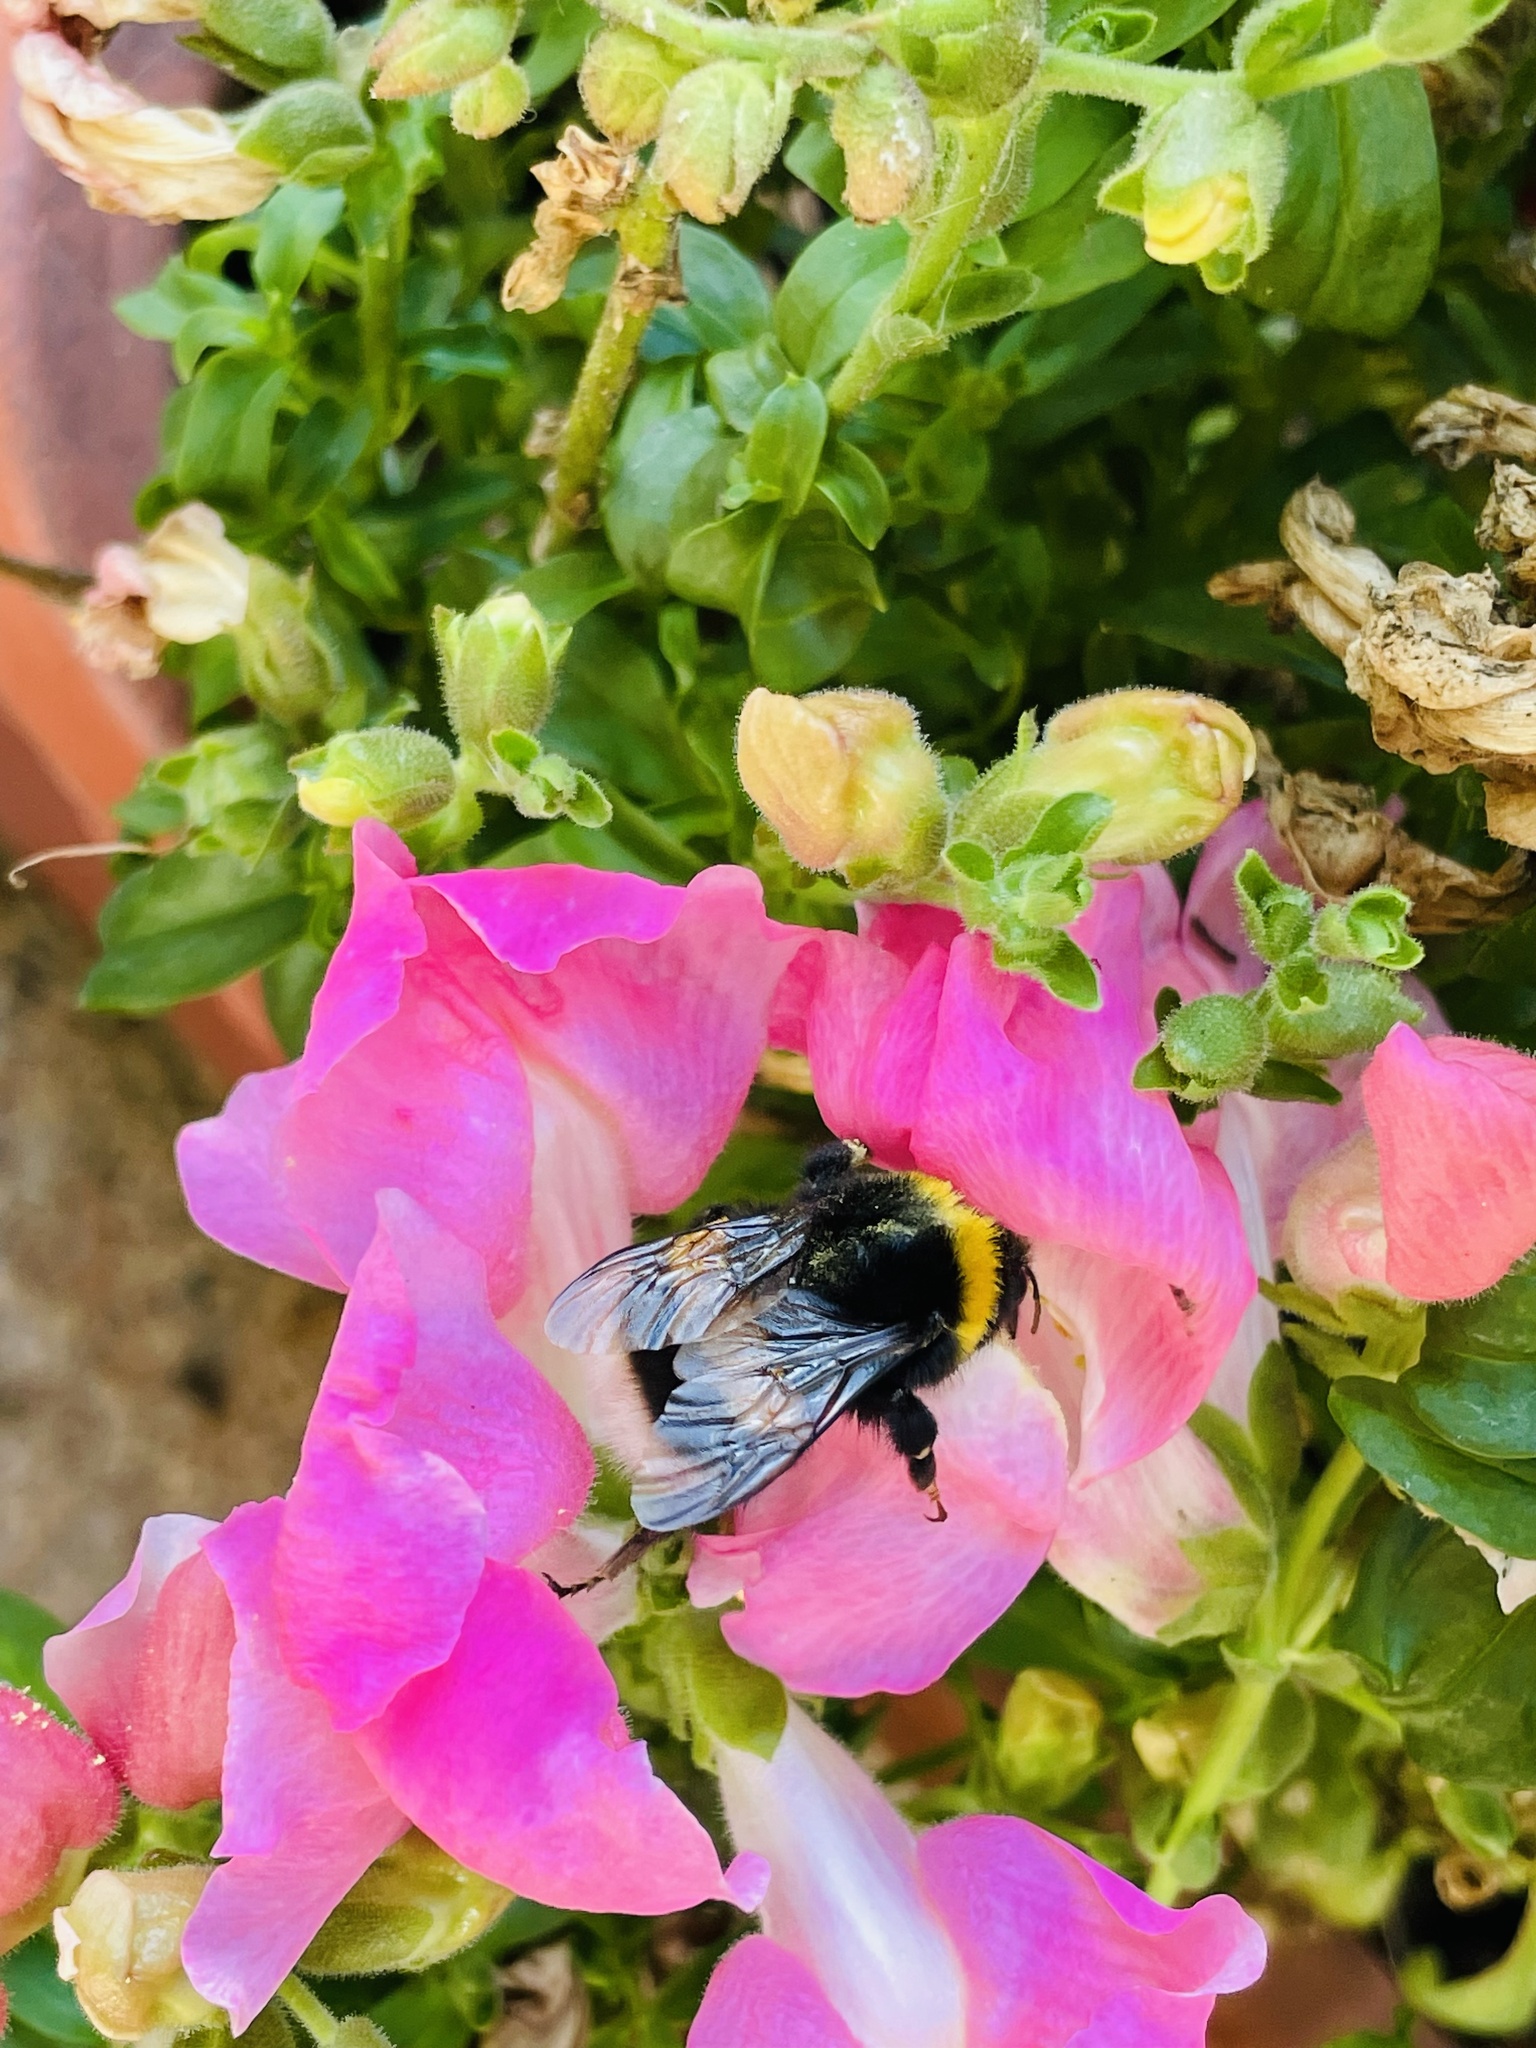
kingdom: Animalia
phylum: Arthropoda
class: Insecta
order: Hymenoptera
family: Apidae
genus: Bombus
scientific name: Bombus terrestris
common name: Buff-tailed bumblebee
